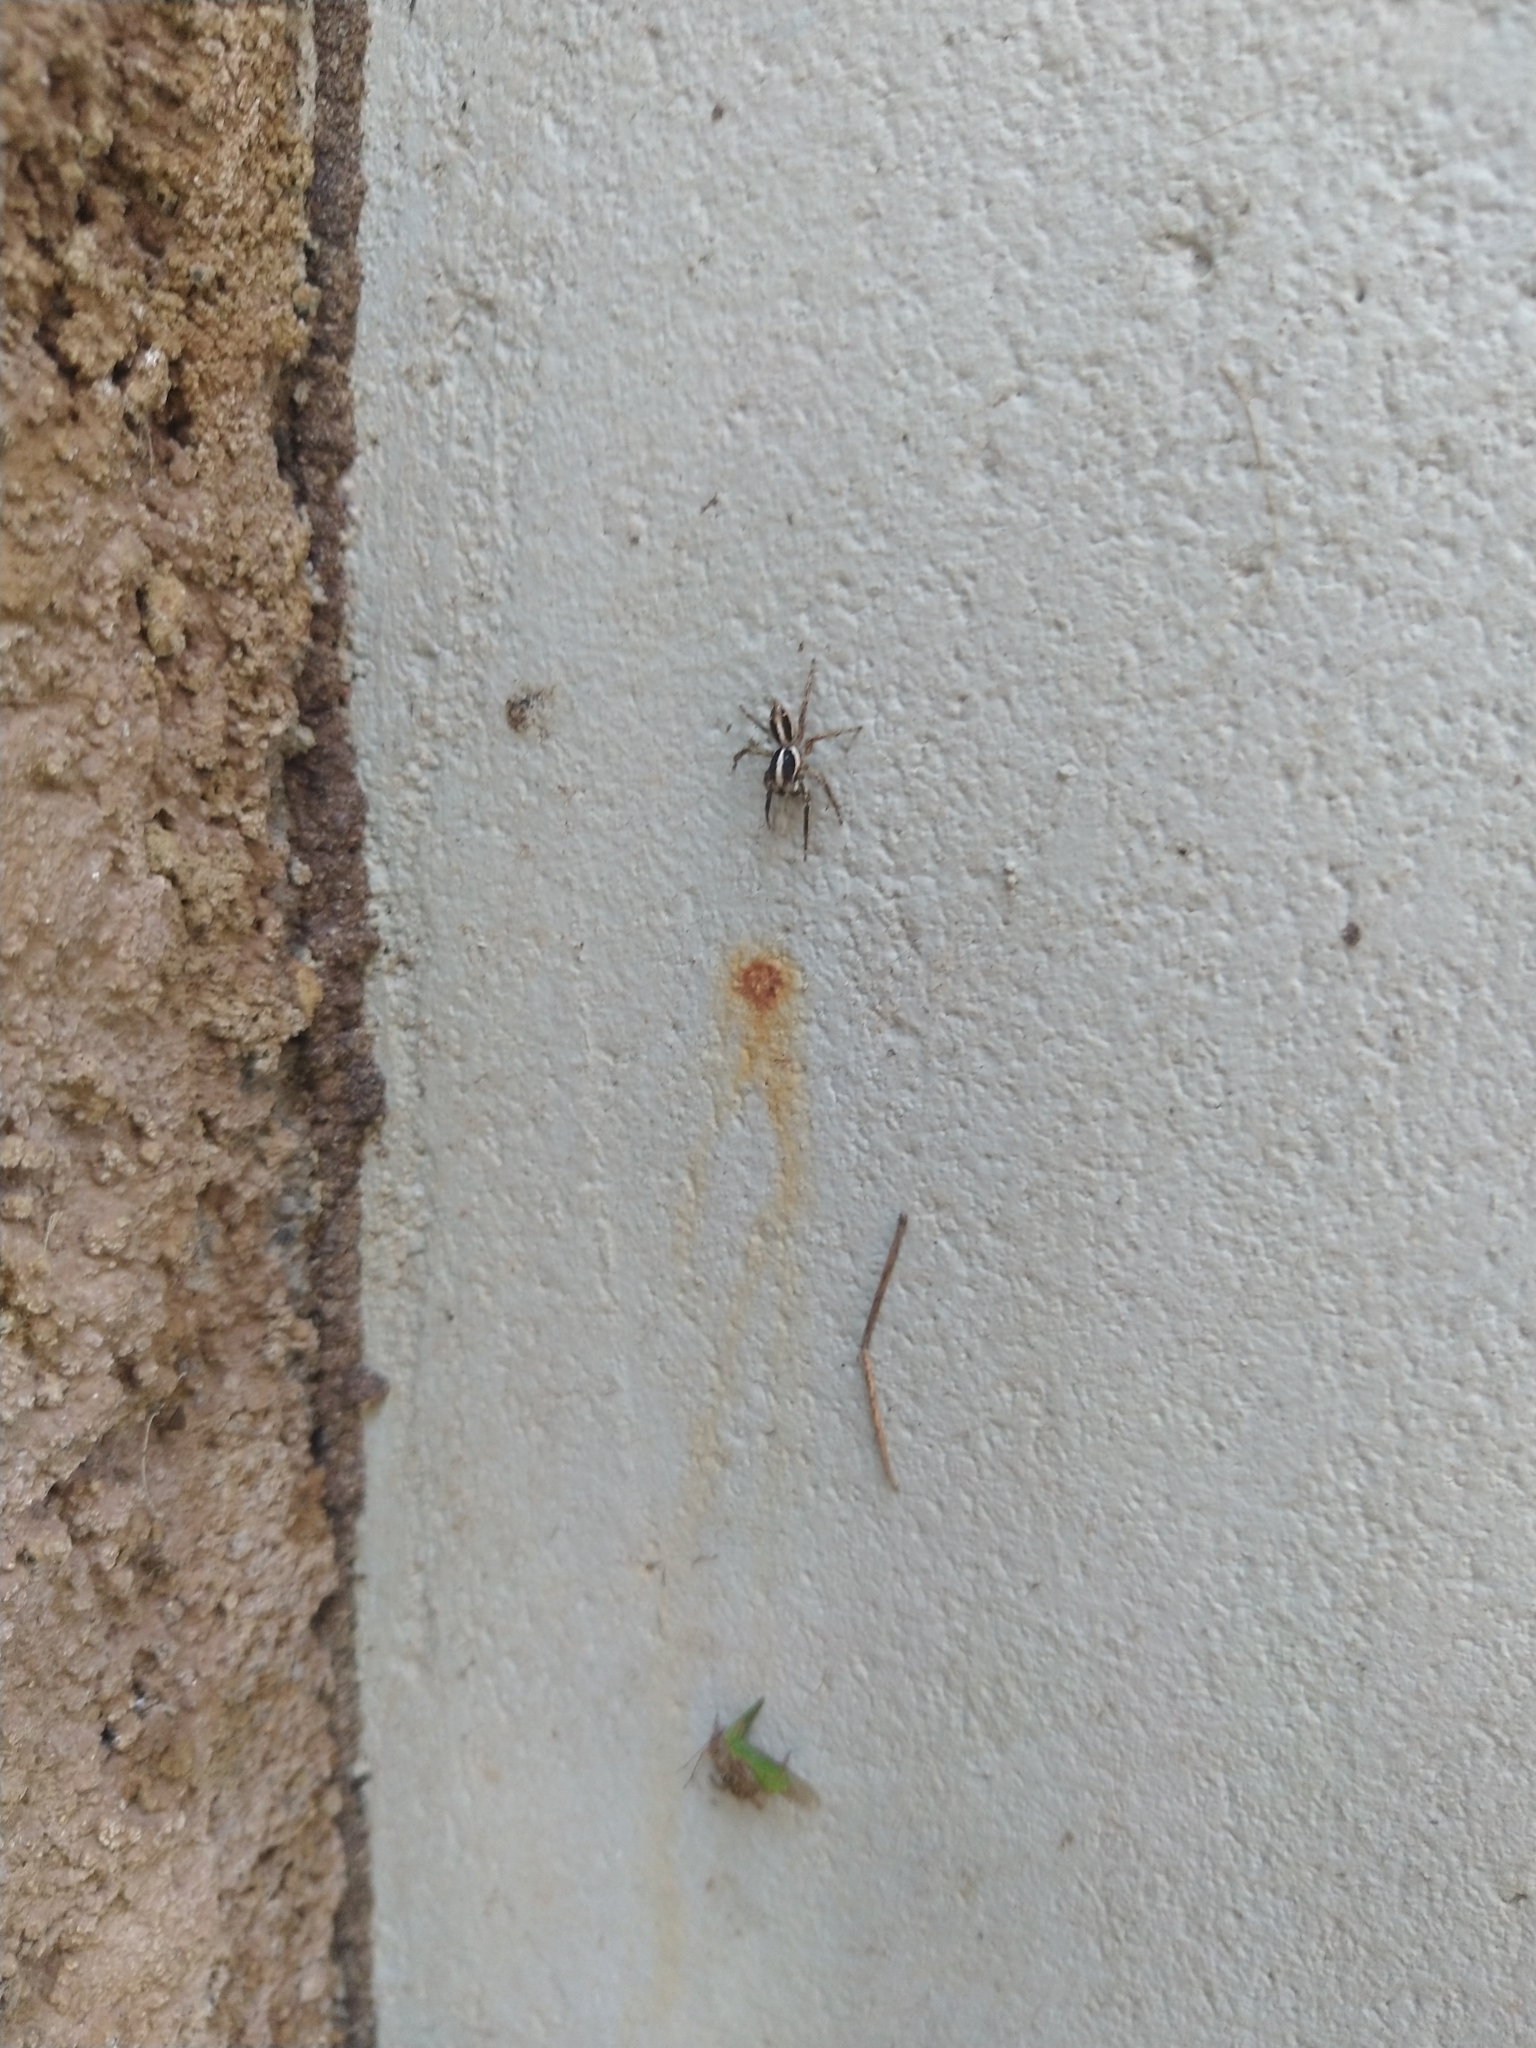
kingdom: Animalia
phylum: Arthropoda
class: Arachnida
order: Araneae
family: Salticidae
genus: Plexippus
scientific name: Plexippus paykulli
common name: Pantropical jumper
